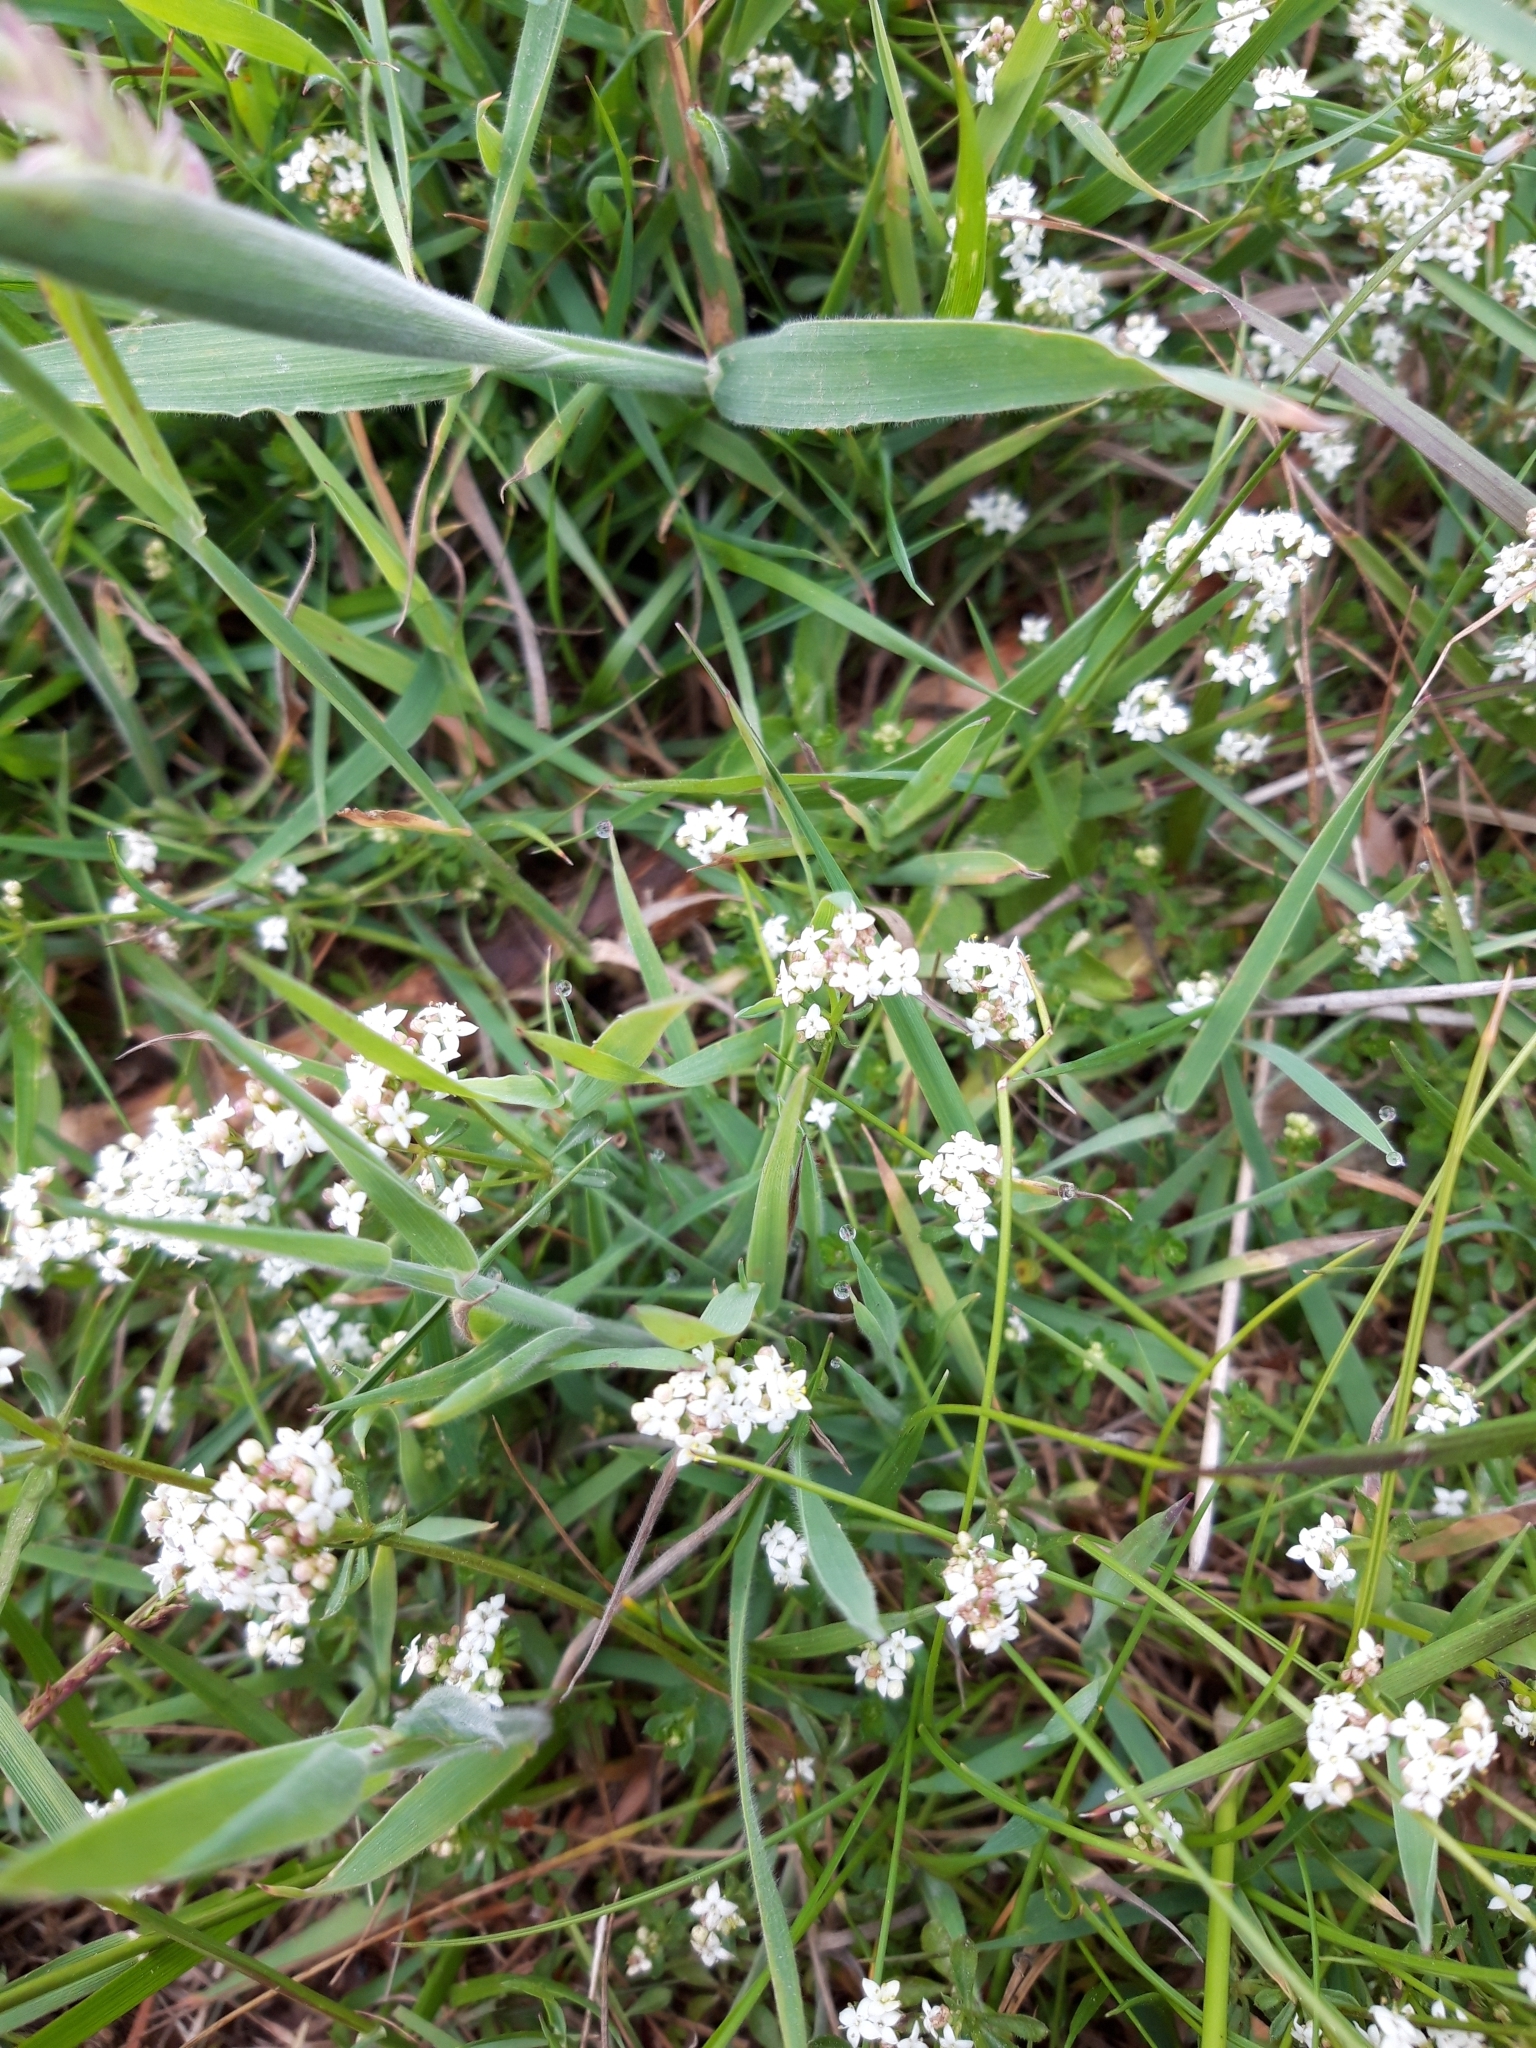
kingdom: Plantae
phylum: Tracheophyta
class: Magnoliopsida
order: Gentianales
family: Rubiaceae
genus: Galium
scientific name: Galium saxatile
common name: Heath bedstraw
